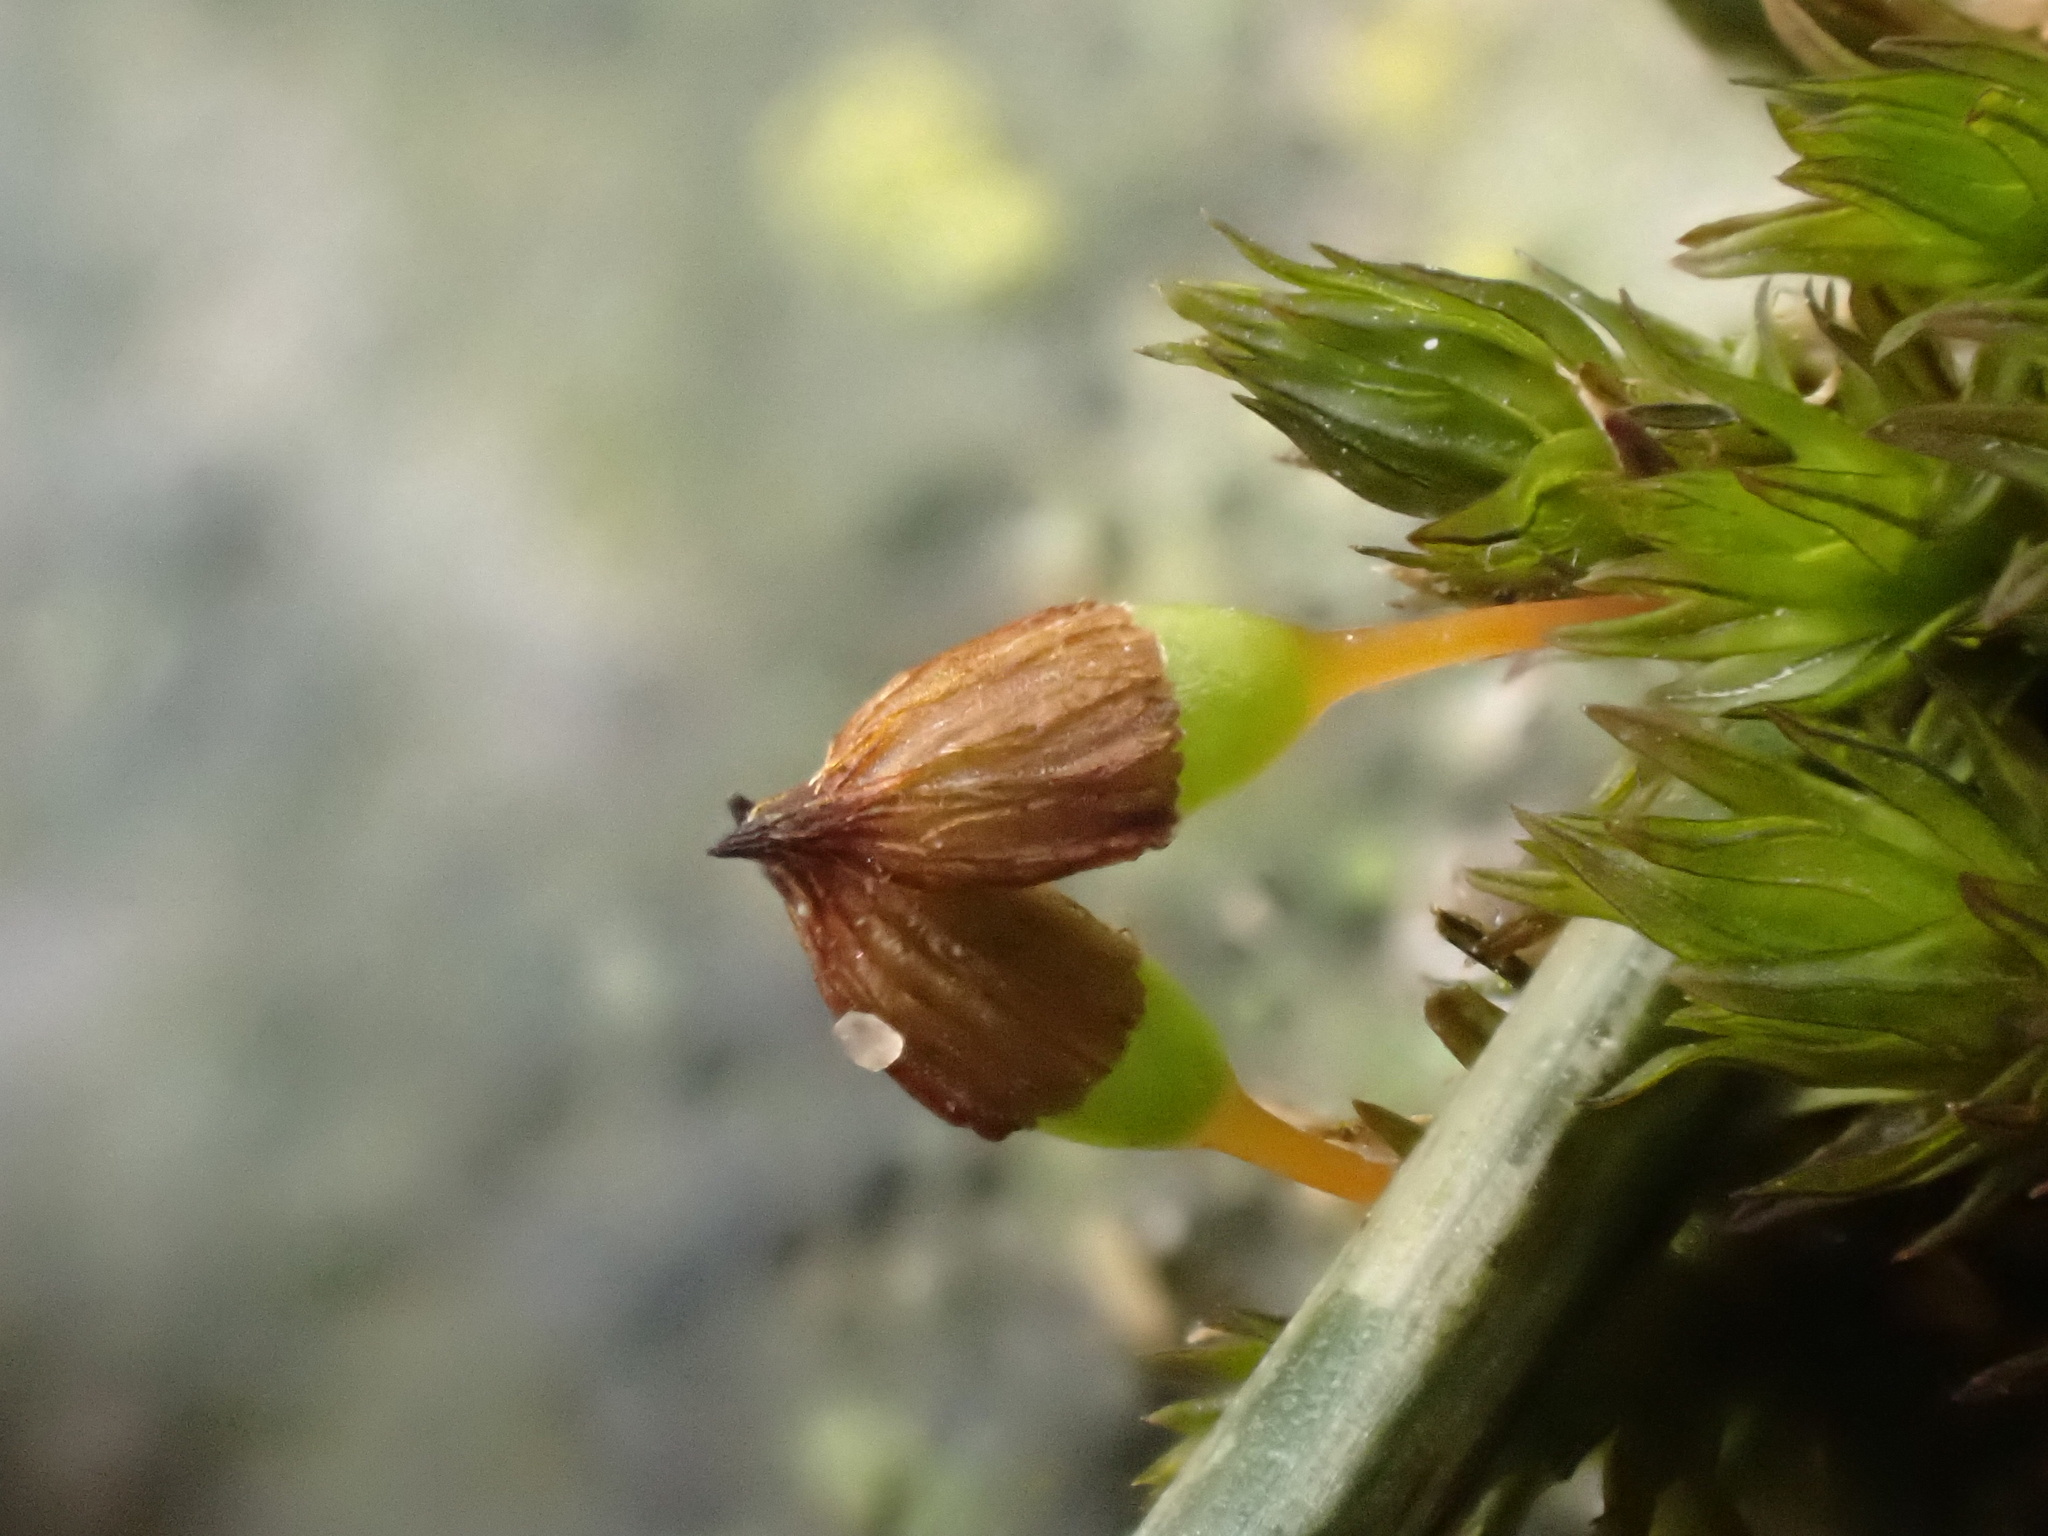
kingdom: Plantae
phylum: Bryophyta
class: Bryopsida
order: Orthotrichales
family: Orthotrichaceae
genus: Orthotrichum
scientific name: Orthotrichum anomalum
